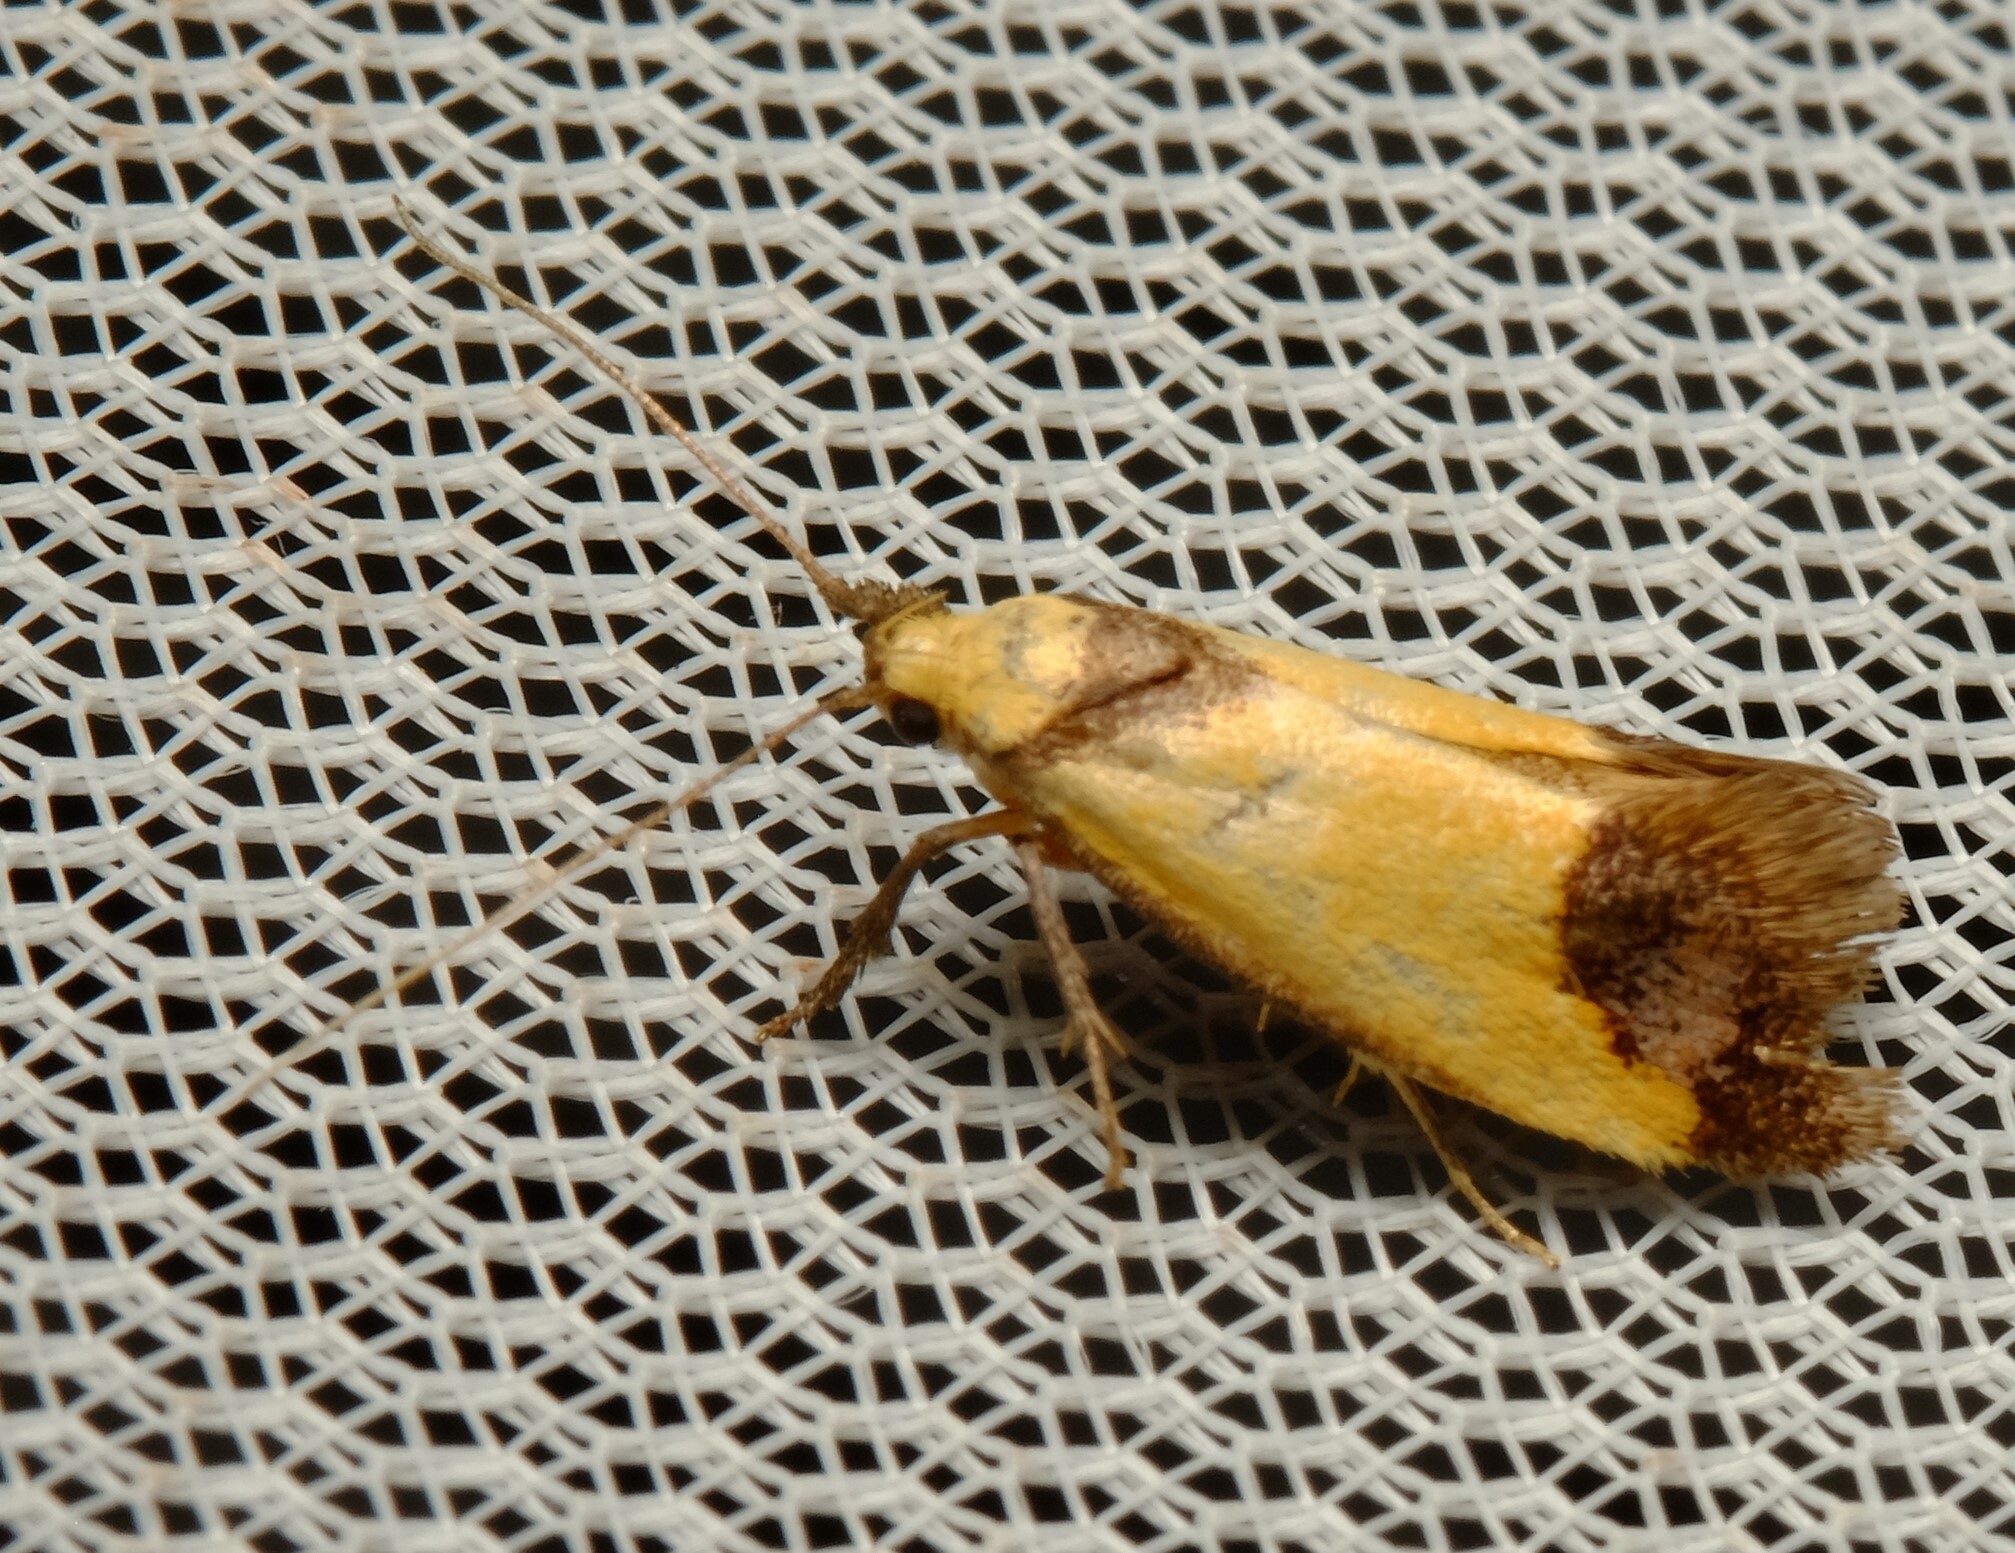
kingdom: Animalia
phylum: Arthropoda
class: Insecta
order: Lepidoptera
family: Oecophoridae
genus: Crepidosceles
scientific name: Crepidosceles timalphes
